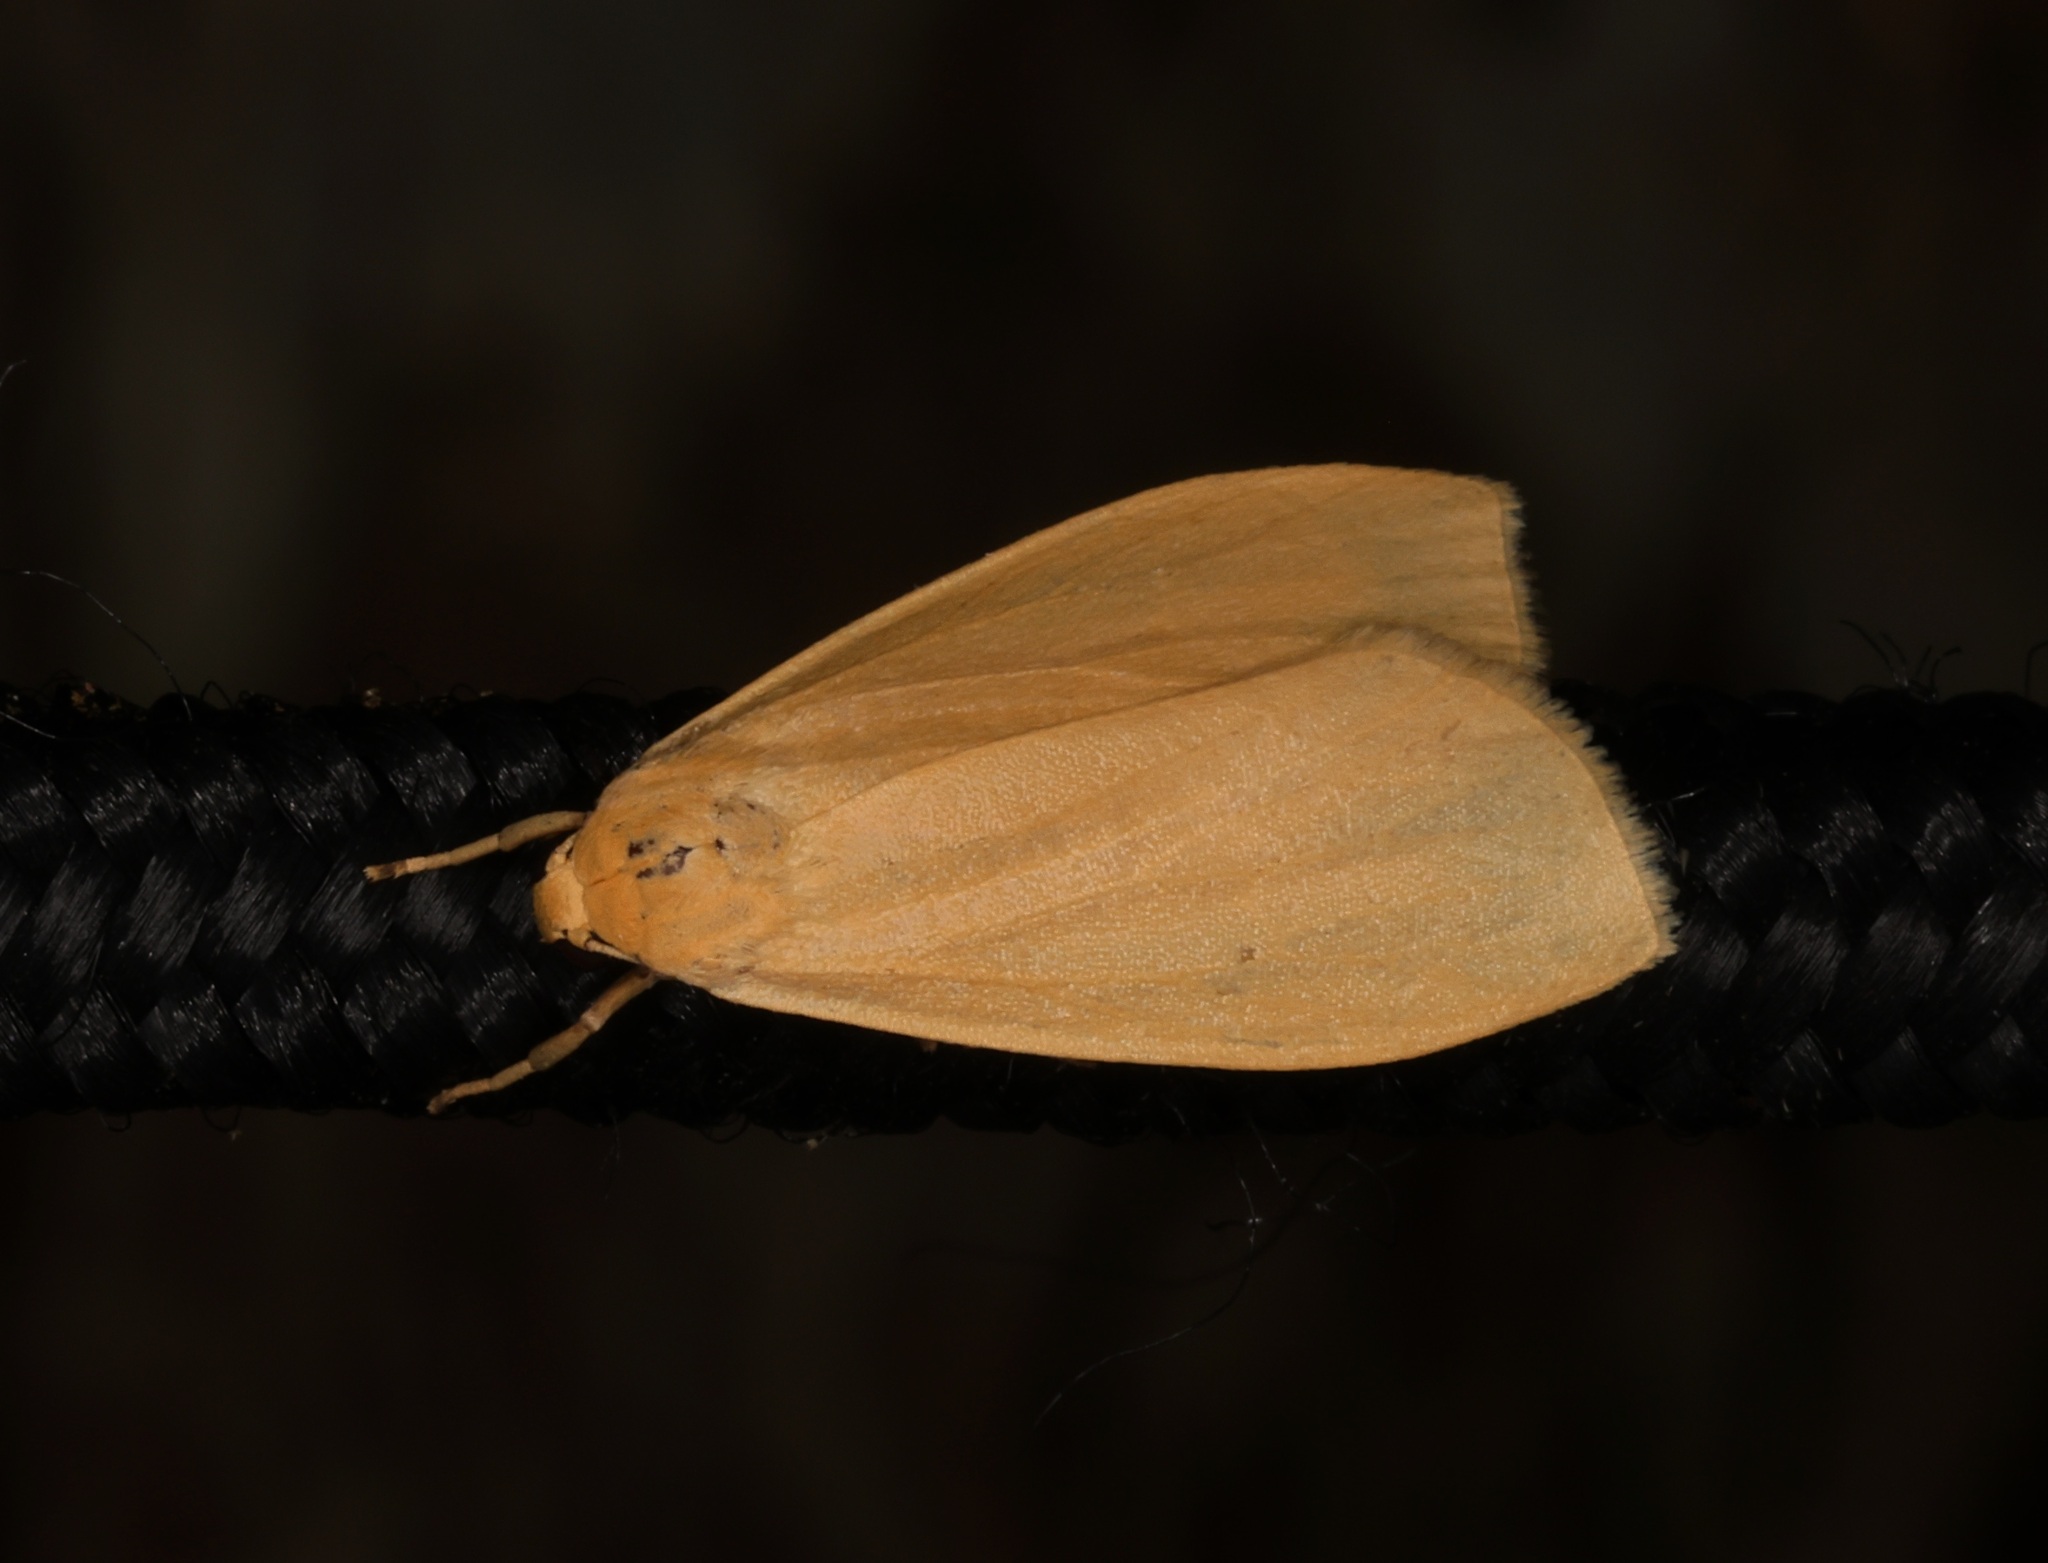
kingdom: Animalia
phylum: Arthropoda
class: Insecta
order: Lepidoptera
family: Erebidae
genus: Wittia
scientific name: Wittia klapperichi
